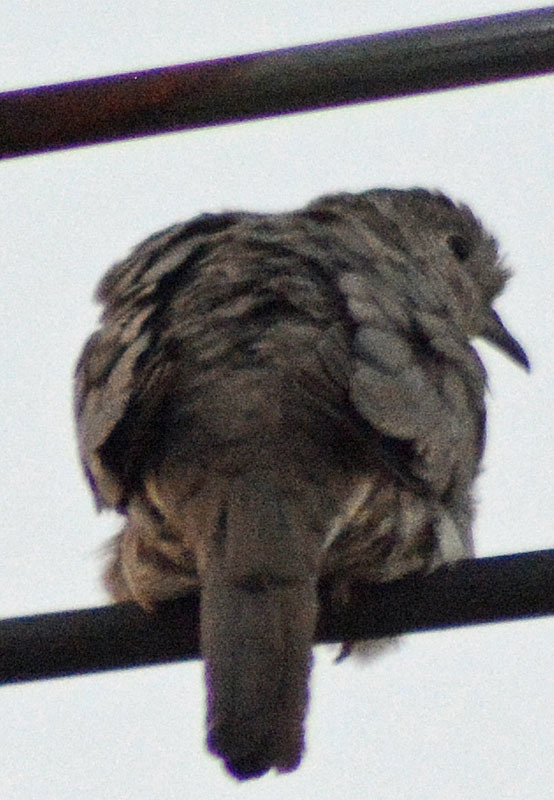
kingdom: Animalia
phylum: Chordata
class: Aves
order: Columbiformes
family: Columbidae
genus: Columbina
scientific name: Columbina inca
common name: Inca dove
